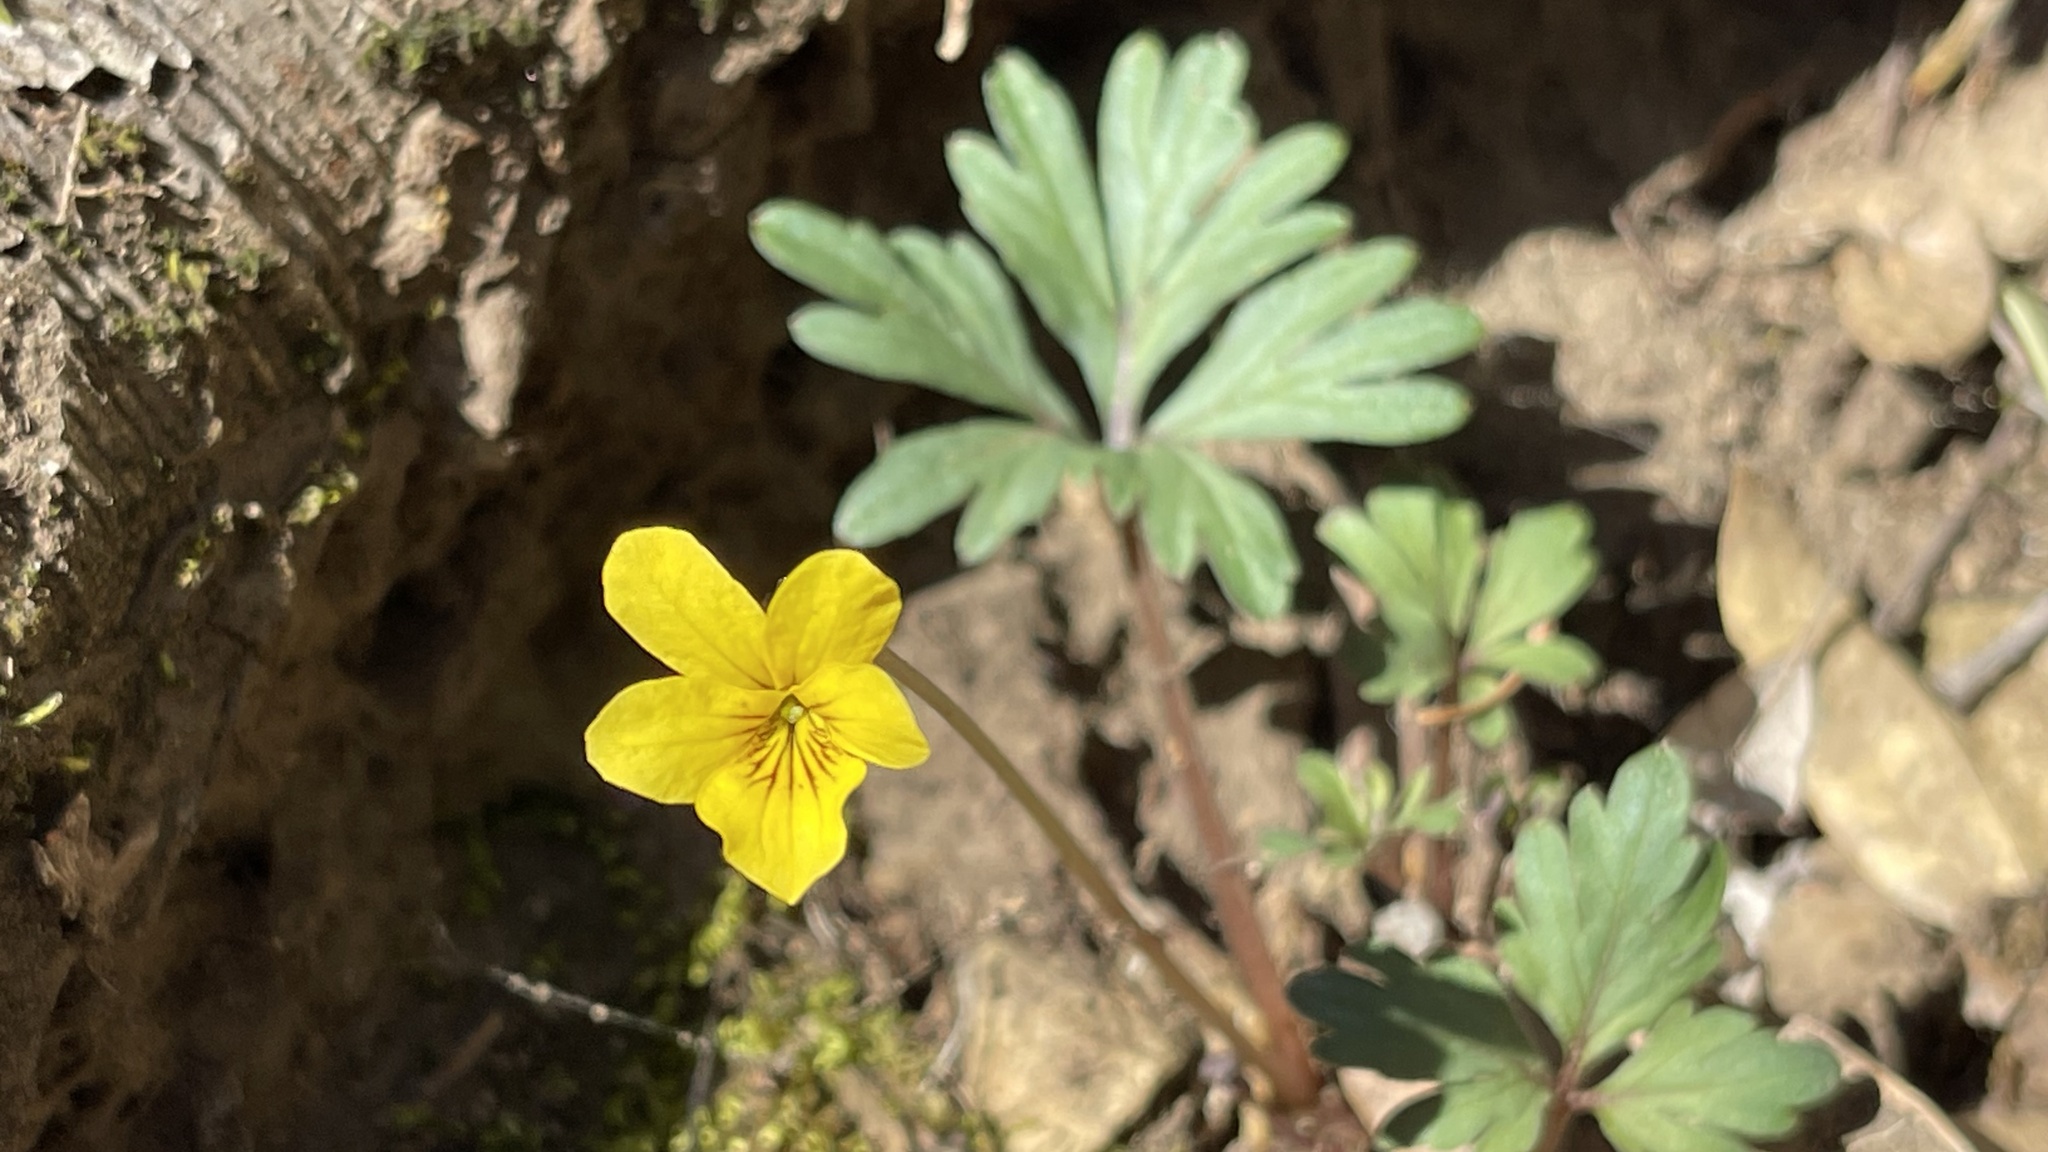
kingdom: Plantae
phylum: Tracheophyta
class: Magnoliopsida
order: Malpighiales
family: Violaceae
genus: Viola
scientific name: Viola sheltonii
